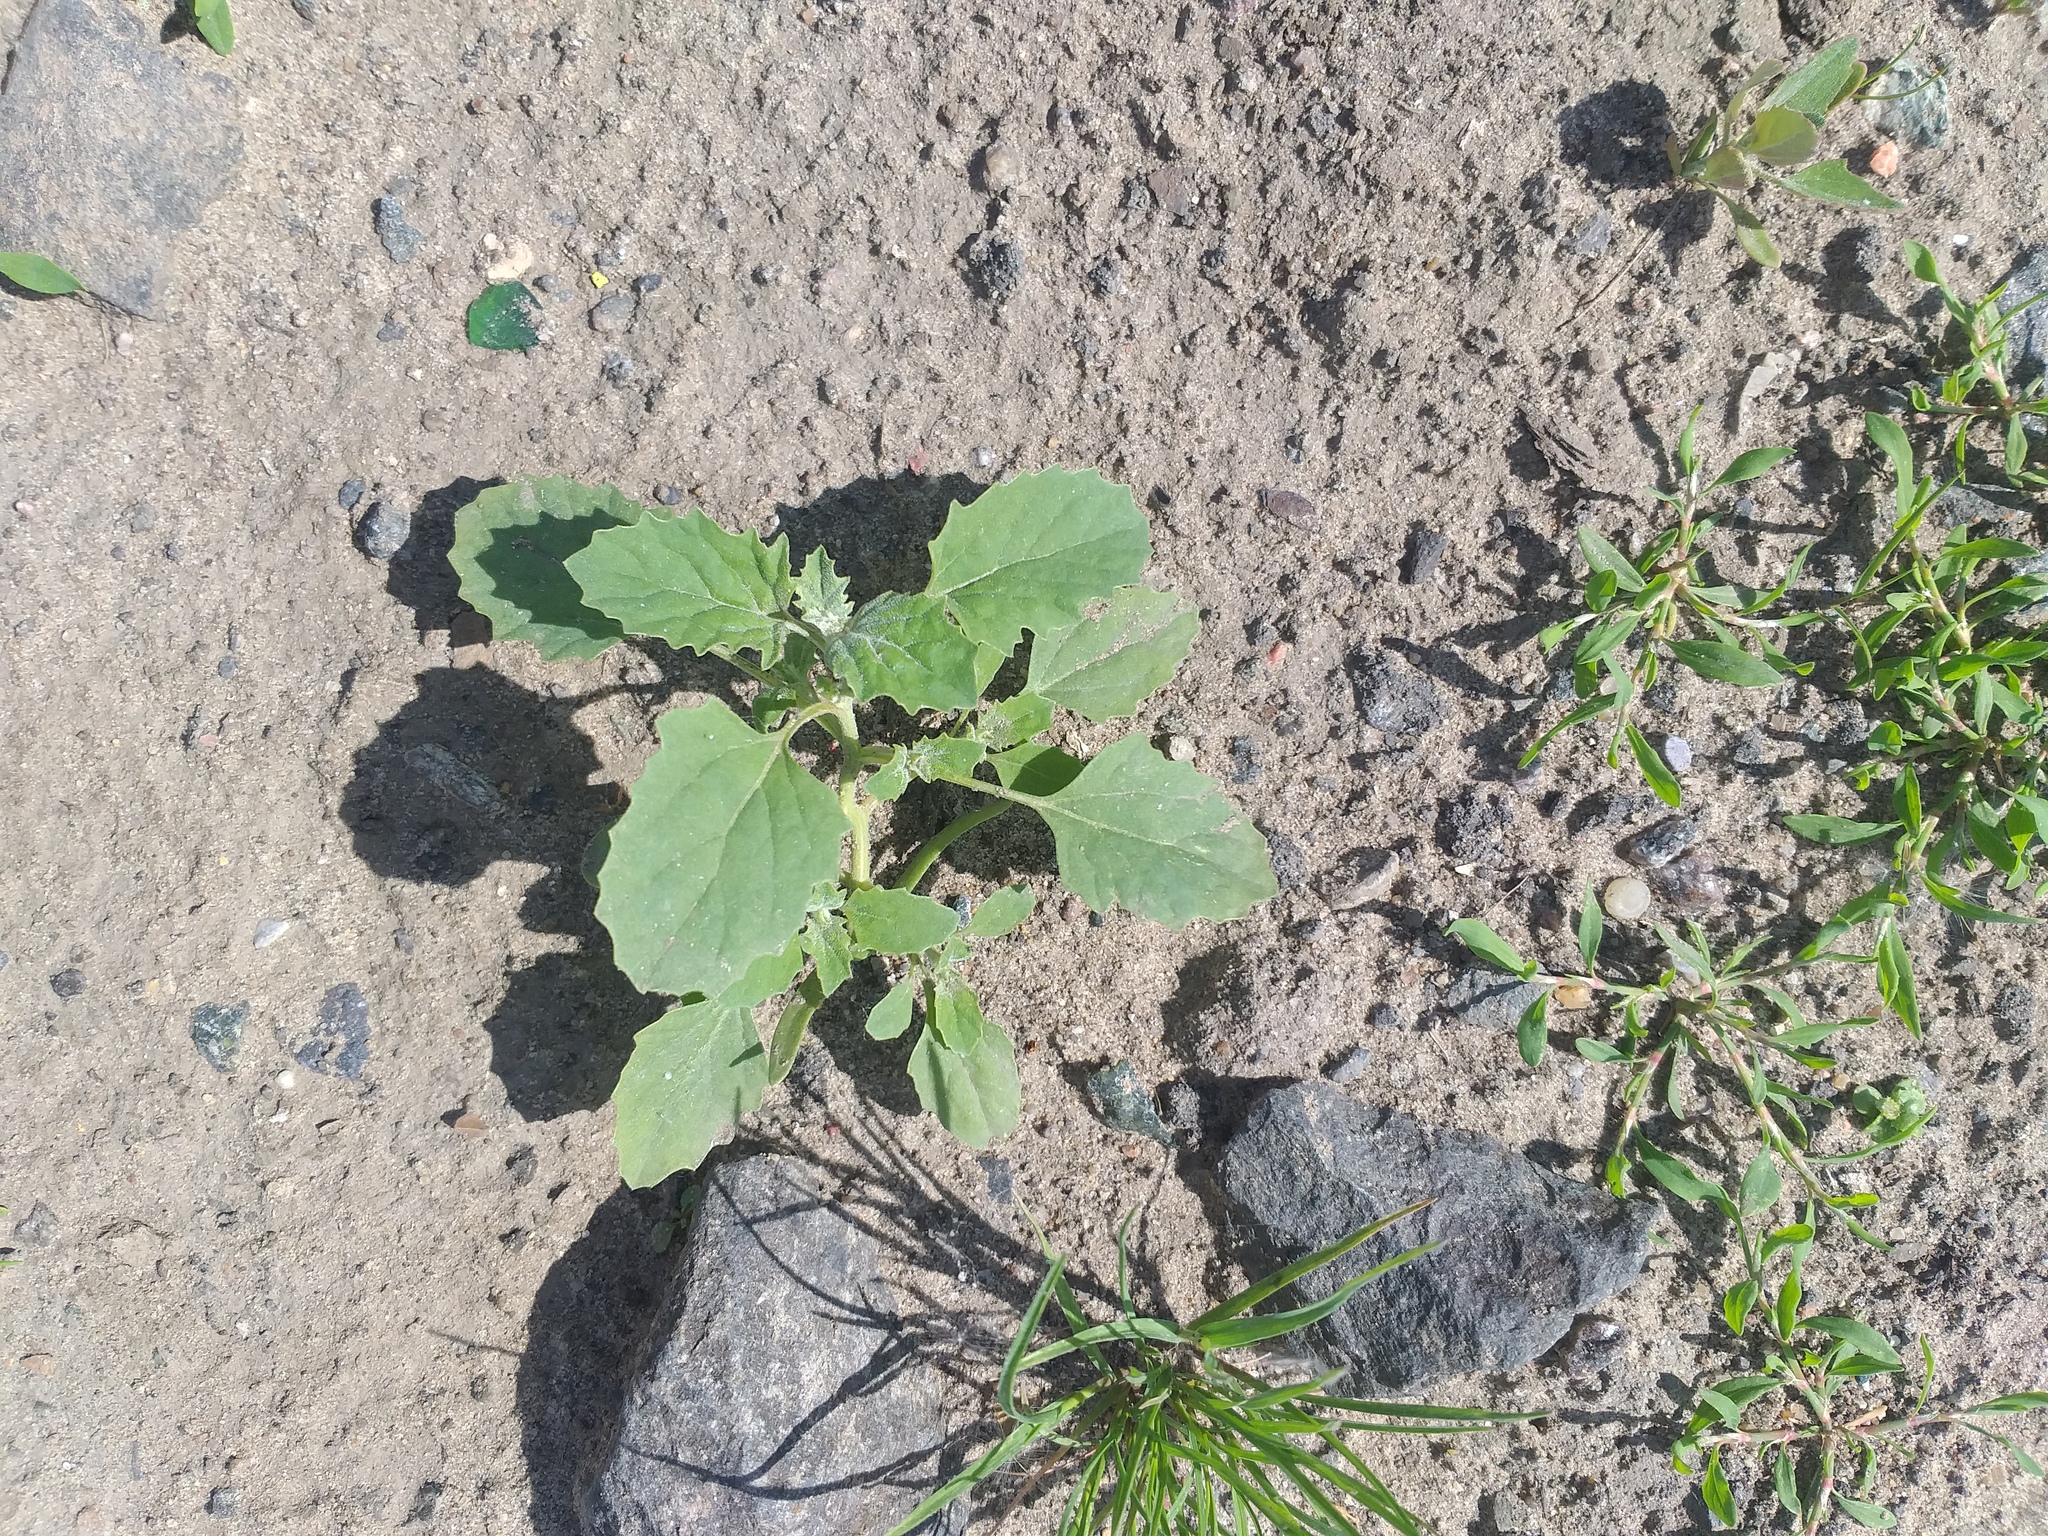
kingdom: Plantae
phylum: Tracheophyta
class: Magnoliopsida
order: Caryophyllales
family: Amaranthaceae
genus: Atriplex
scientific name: Atriplex tatarica
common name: Tatarian orache
